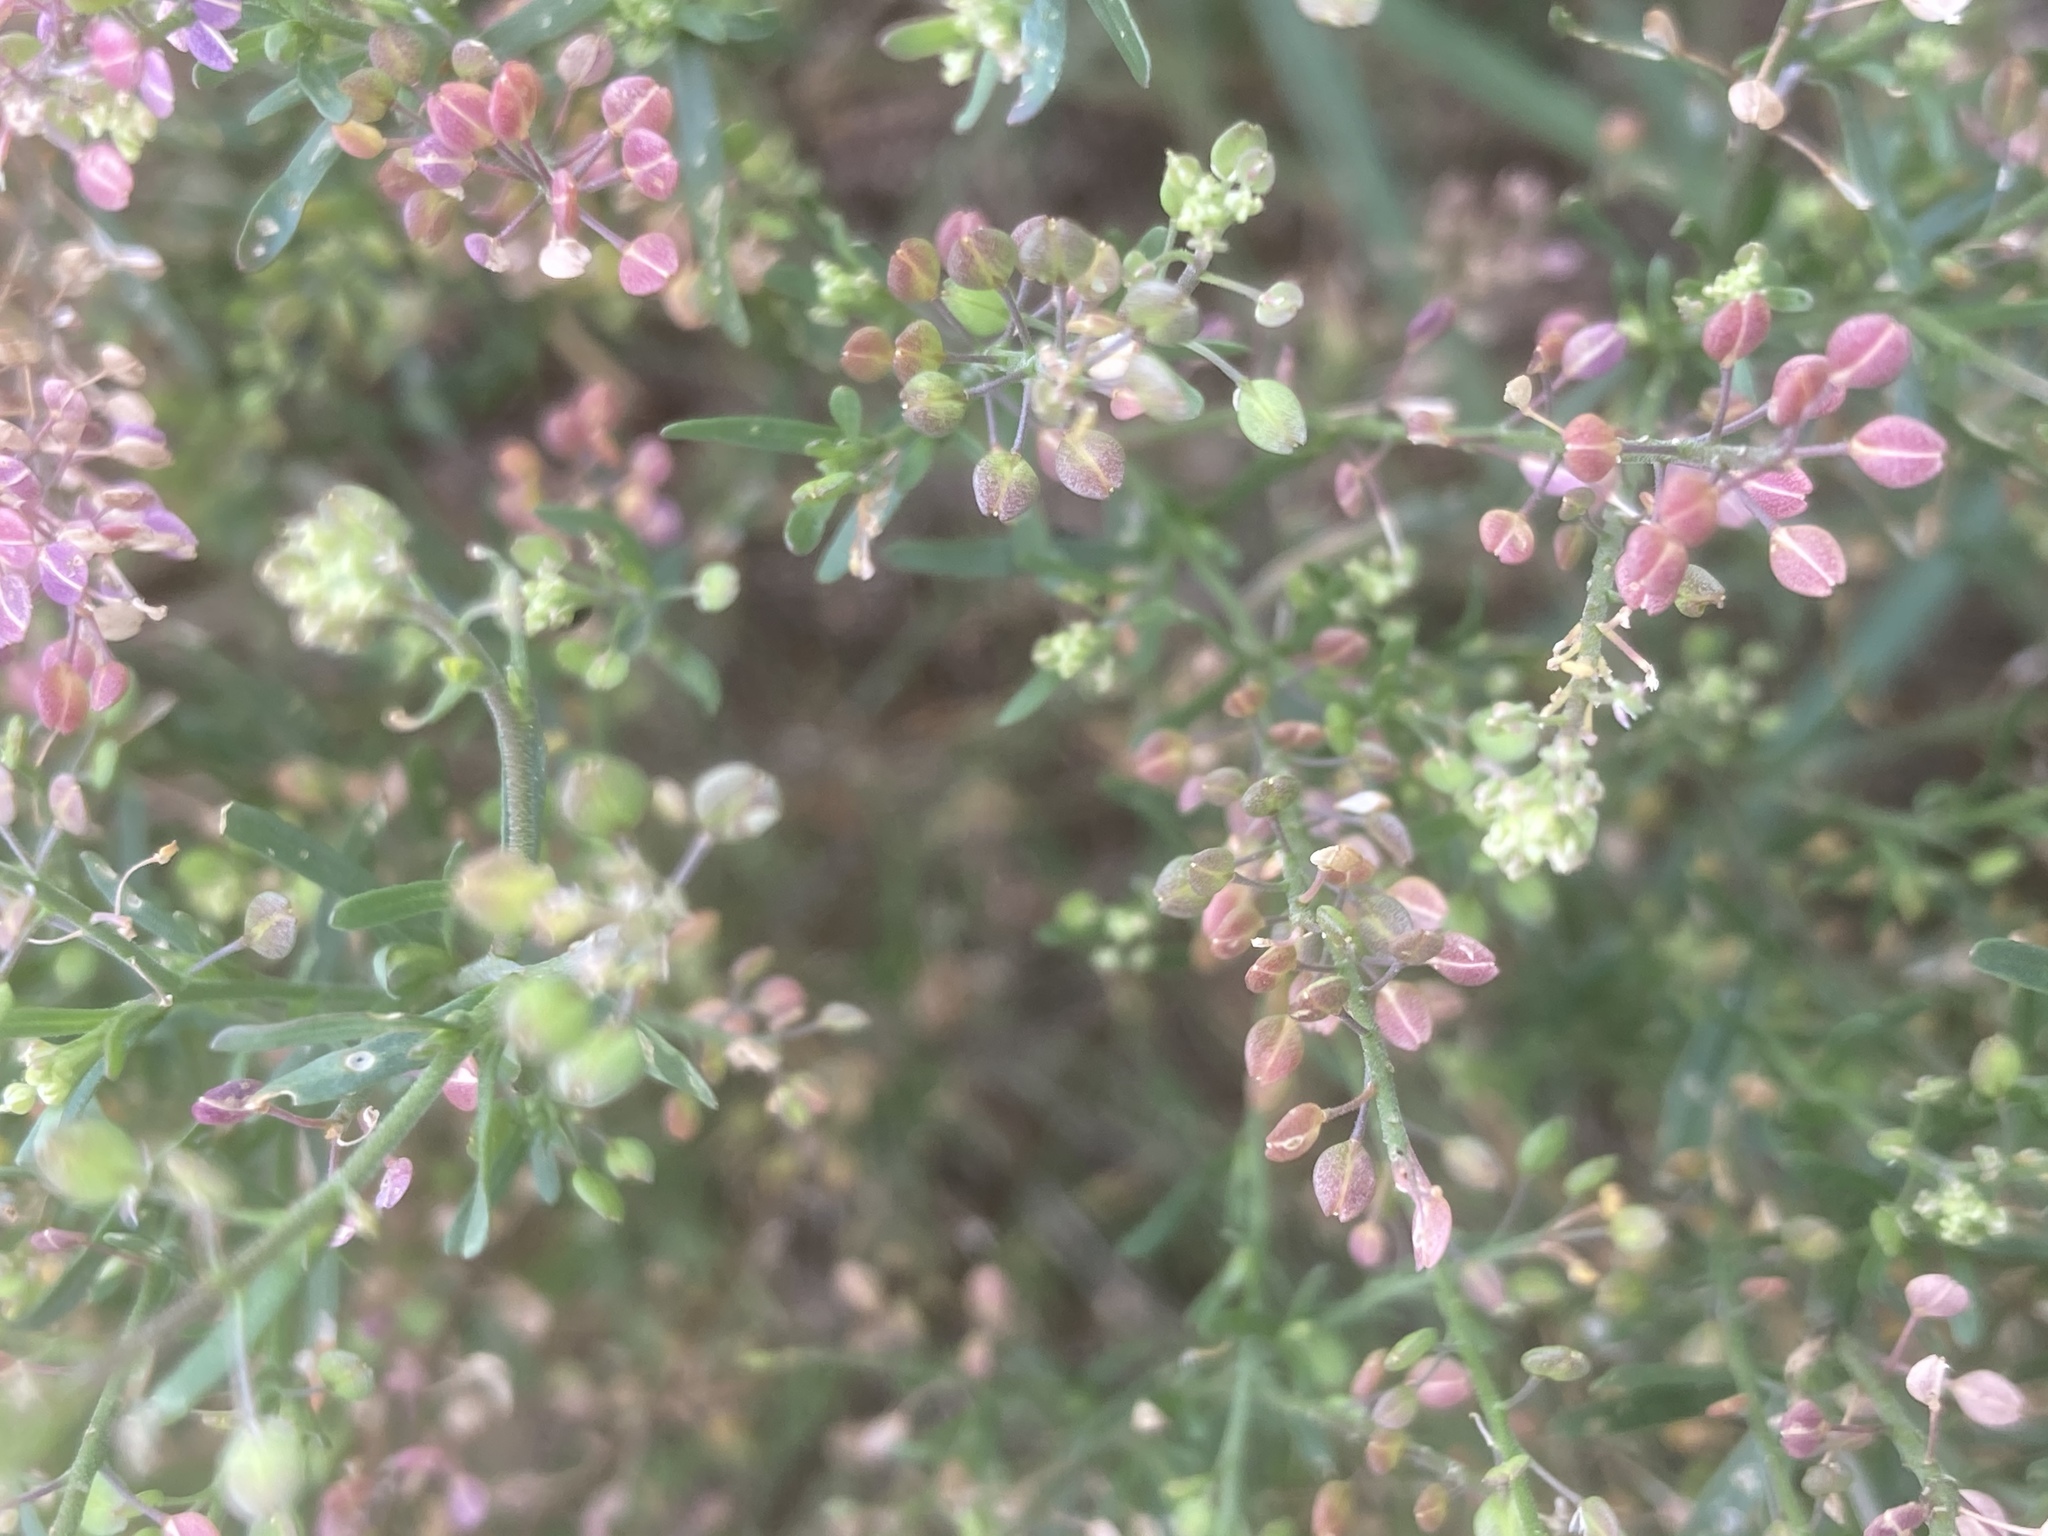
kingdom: Plantae
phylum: Tracheophyta
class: Magnoliopsida
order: Brassicales
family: Brassicaceae
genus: Lepidium
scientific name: Lepidium ruderale
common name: Narrow-leaved pepperwort
